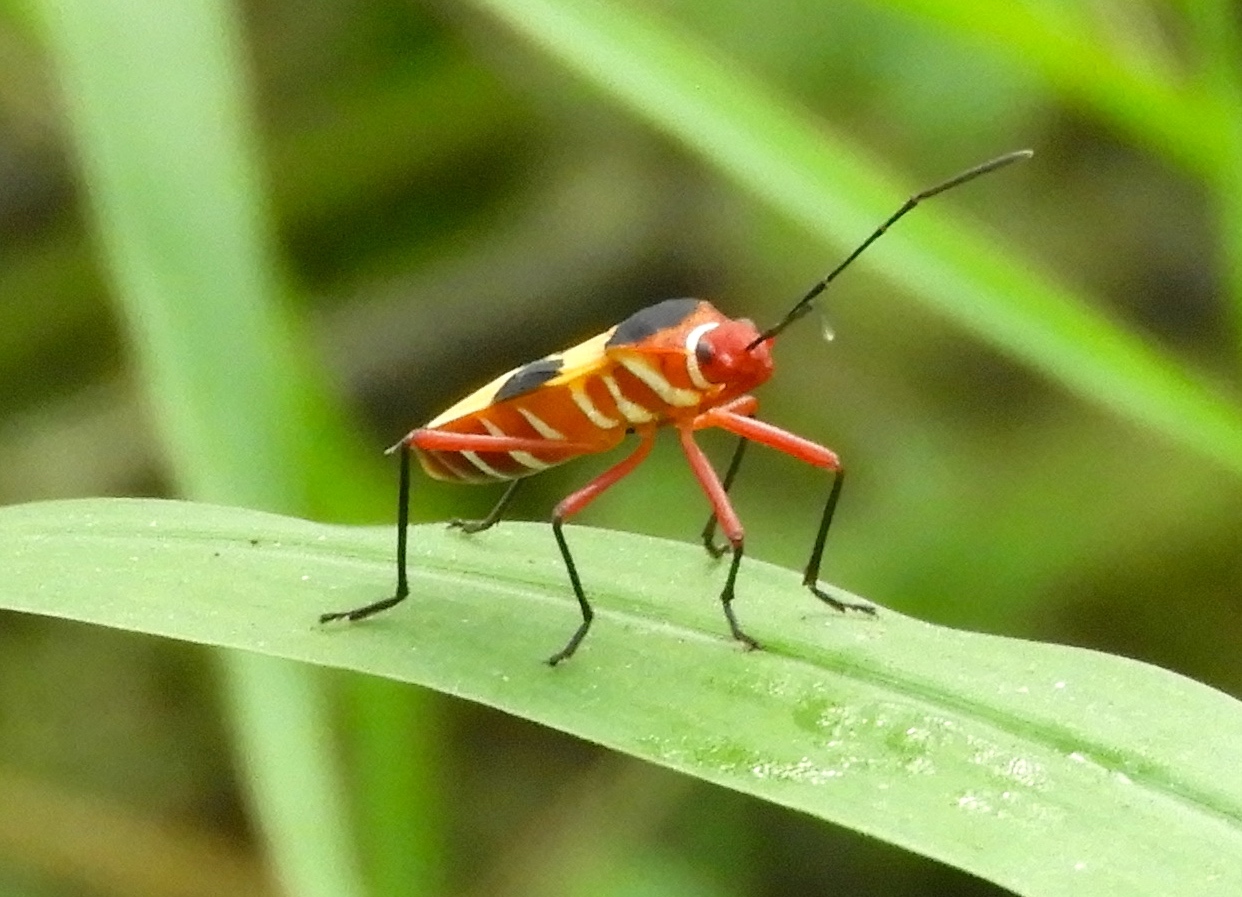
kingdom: Animalia
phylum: Arthropoda
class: Insecta
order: Hemiptera
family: Pyrrhocoridae
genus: Dysdercus
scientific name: Dysdercus concinnus
